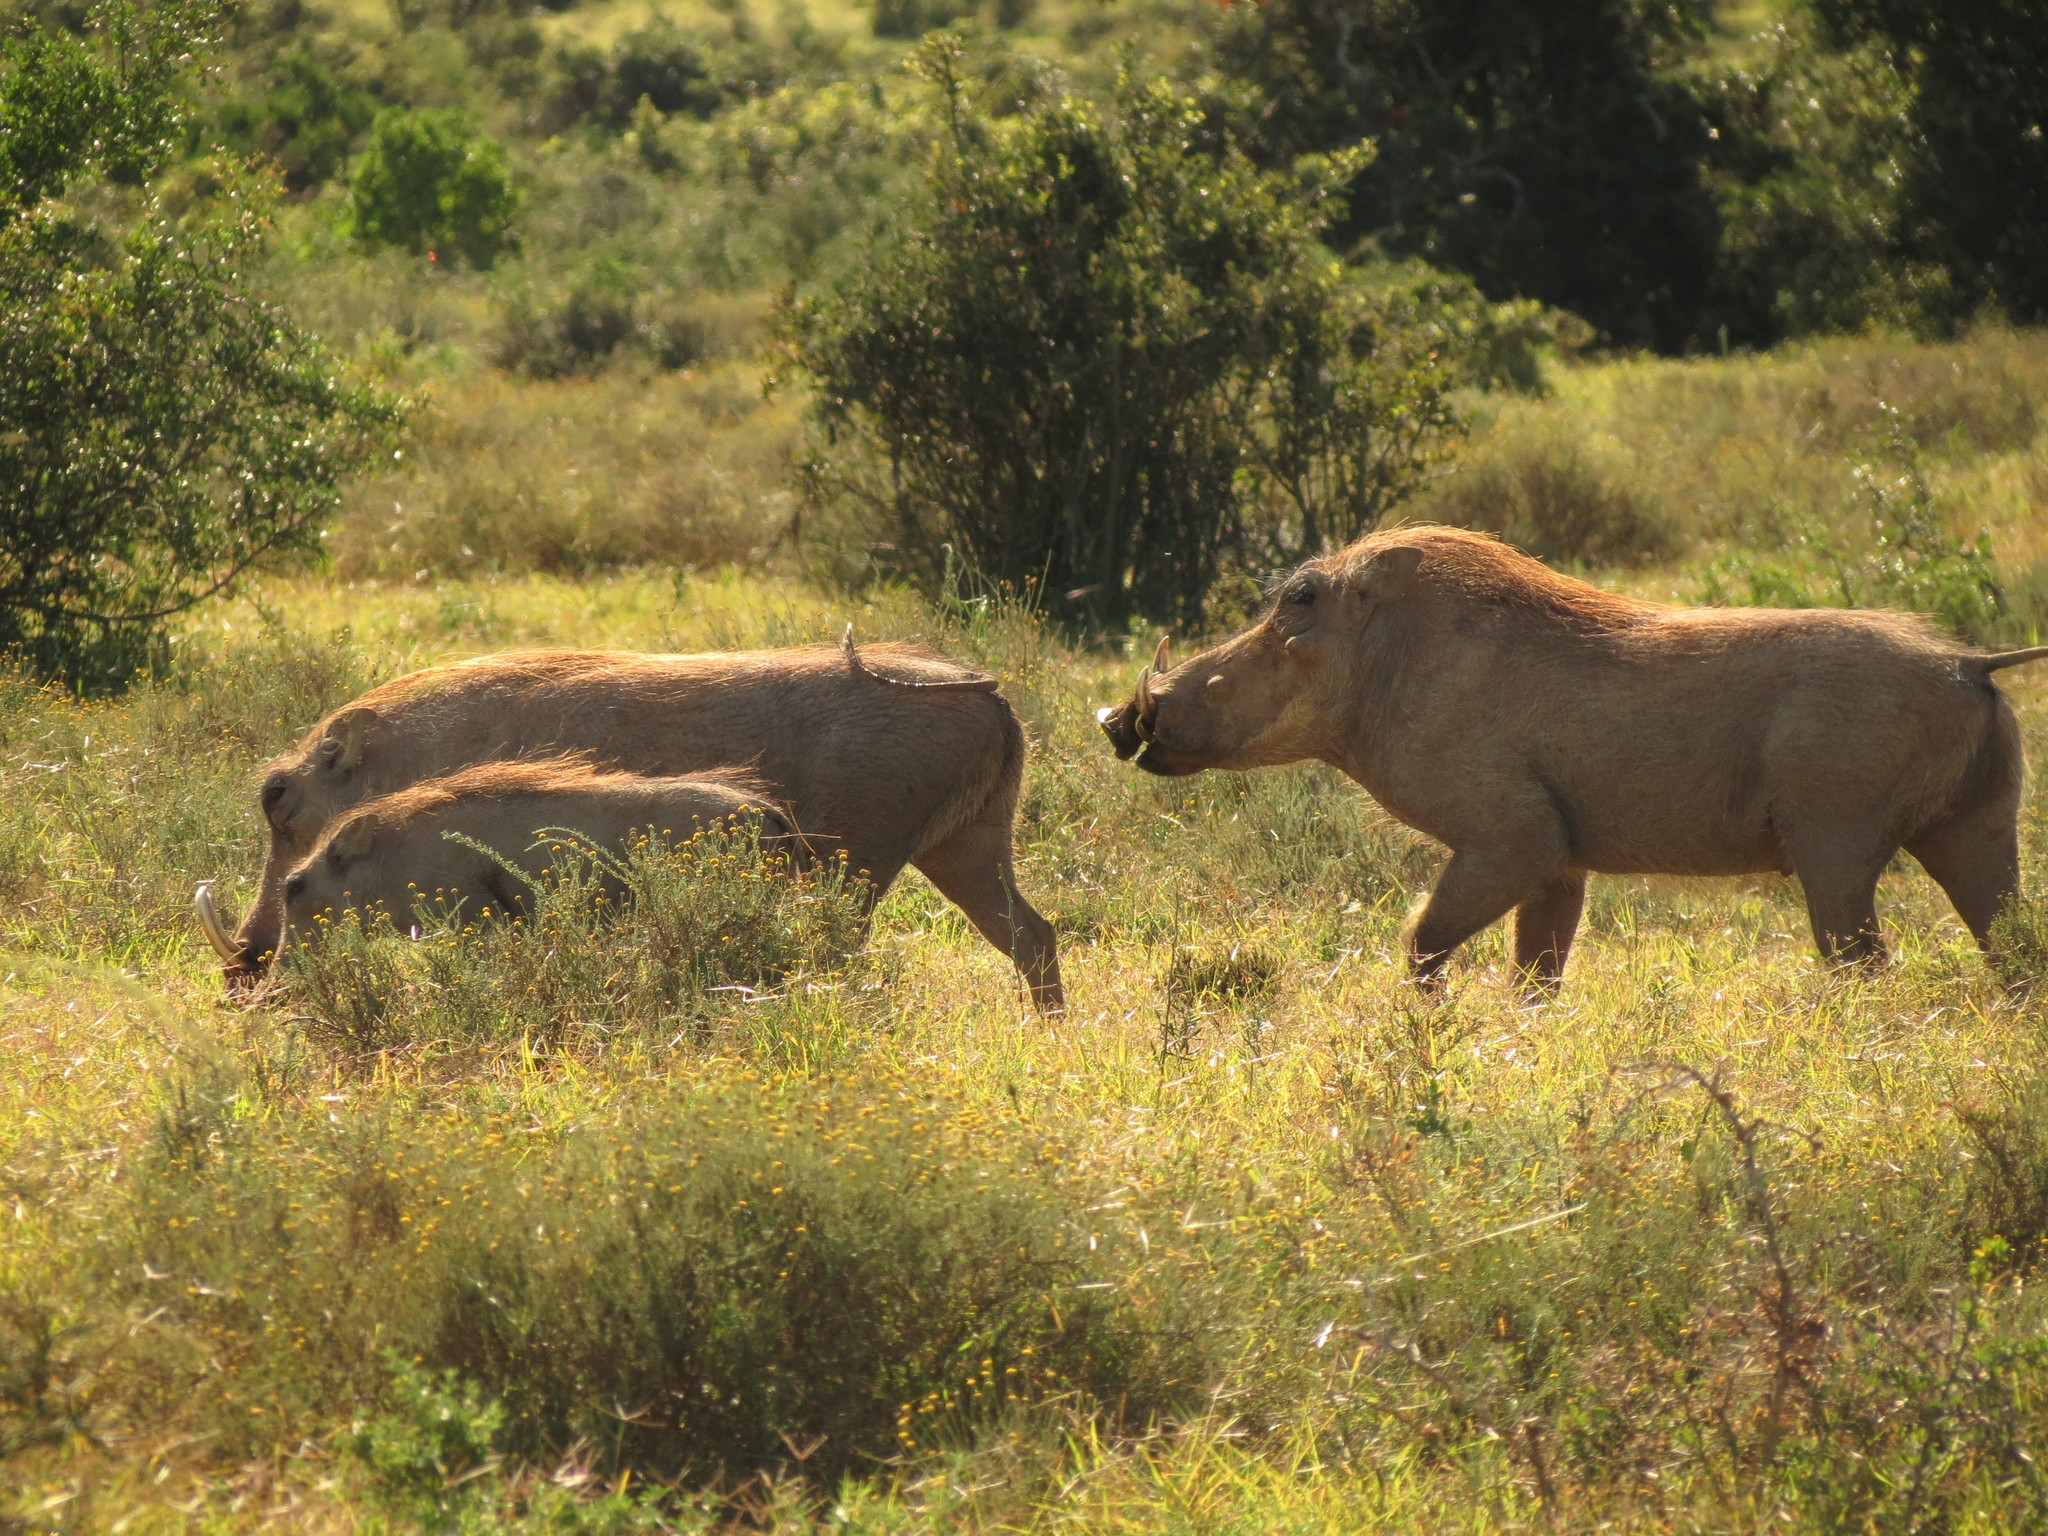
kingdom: Animalia
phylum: Chordata
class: Mammalia
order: Artiodactyla
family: Suidae
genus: Phacochoerus
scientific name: Phacochoerus africanus
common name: Common warthog
